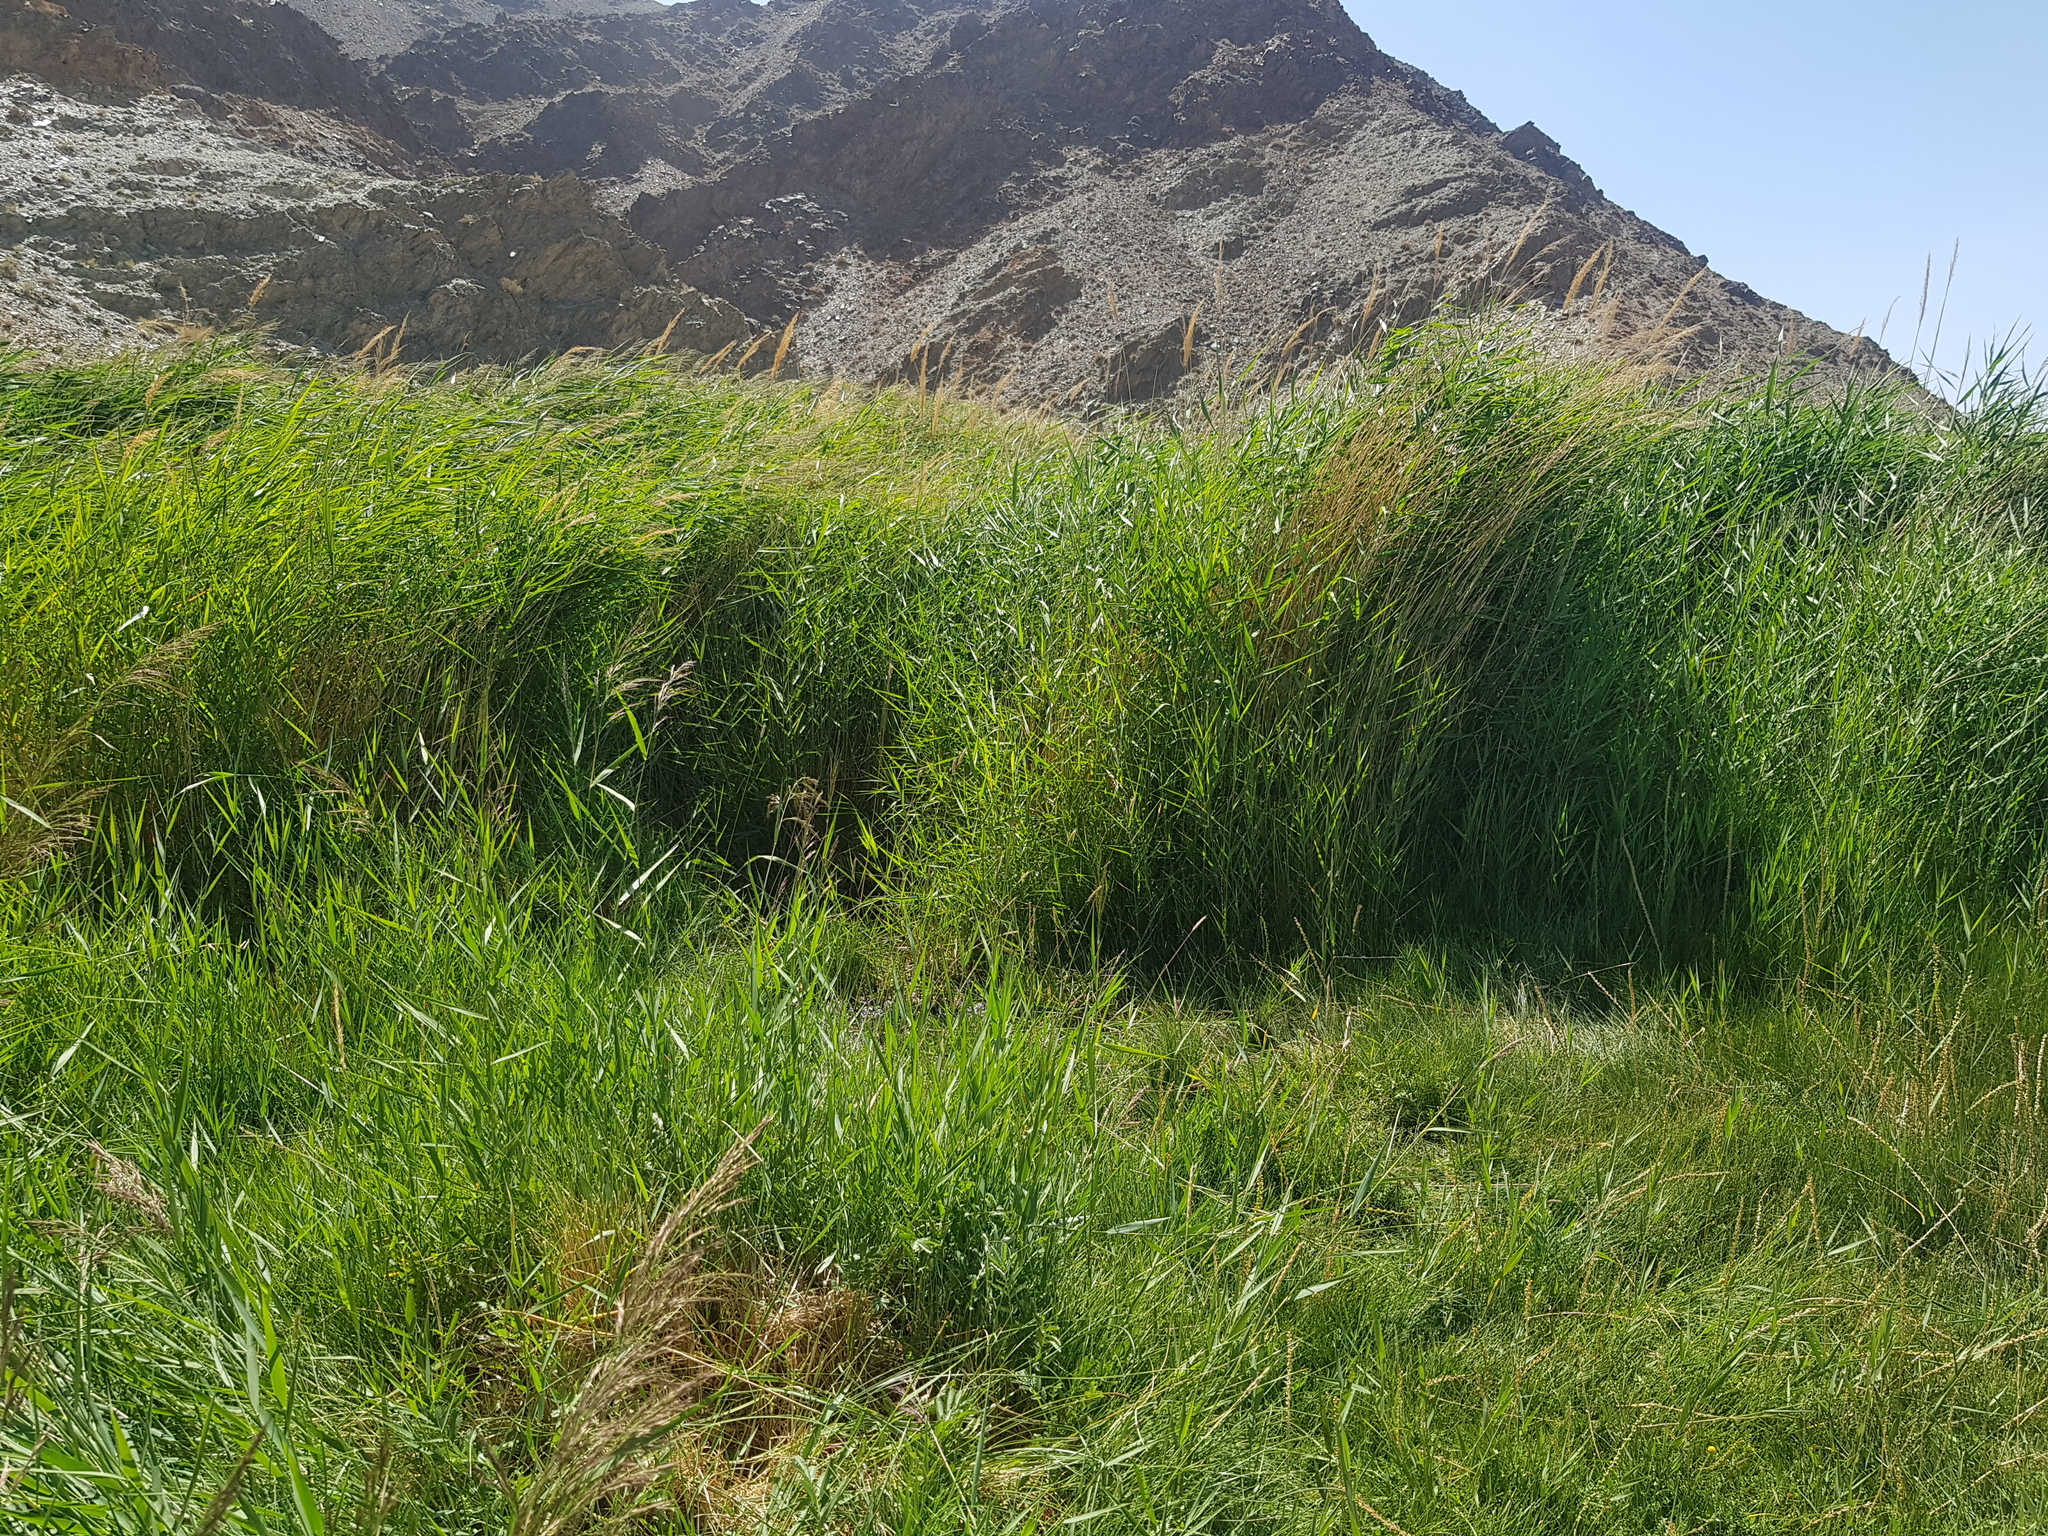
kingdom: Plantae
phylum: Tracheophyta
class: Liliopsida
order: Poales
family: Poaceae
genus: Phragmites
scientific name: Phragmites australis
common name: Common reed
